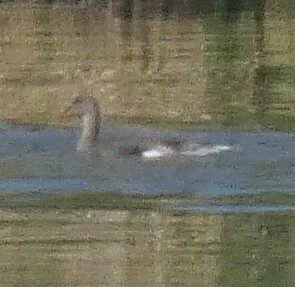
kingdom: Animalia
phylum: Chordata
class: Aves
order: Anseriformes
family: Anatidae
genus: Mareca
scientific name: Mareca strepera
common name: Gadwall
